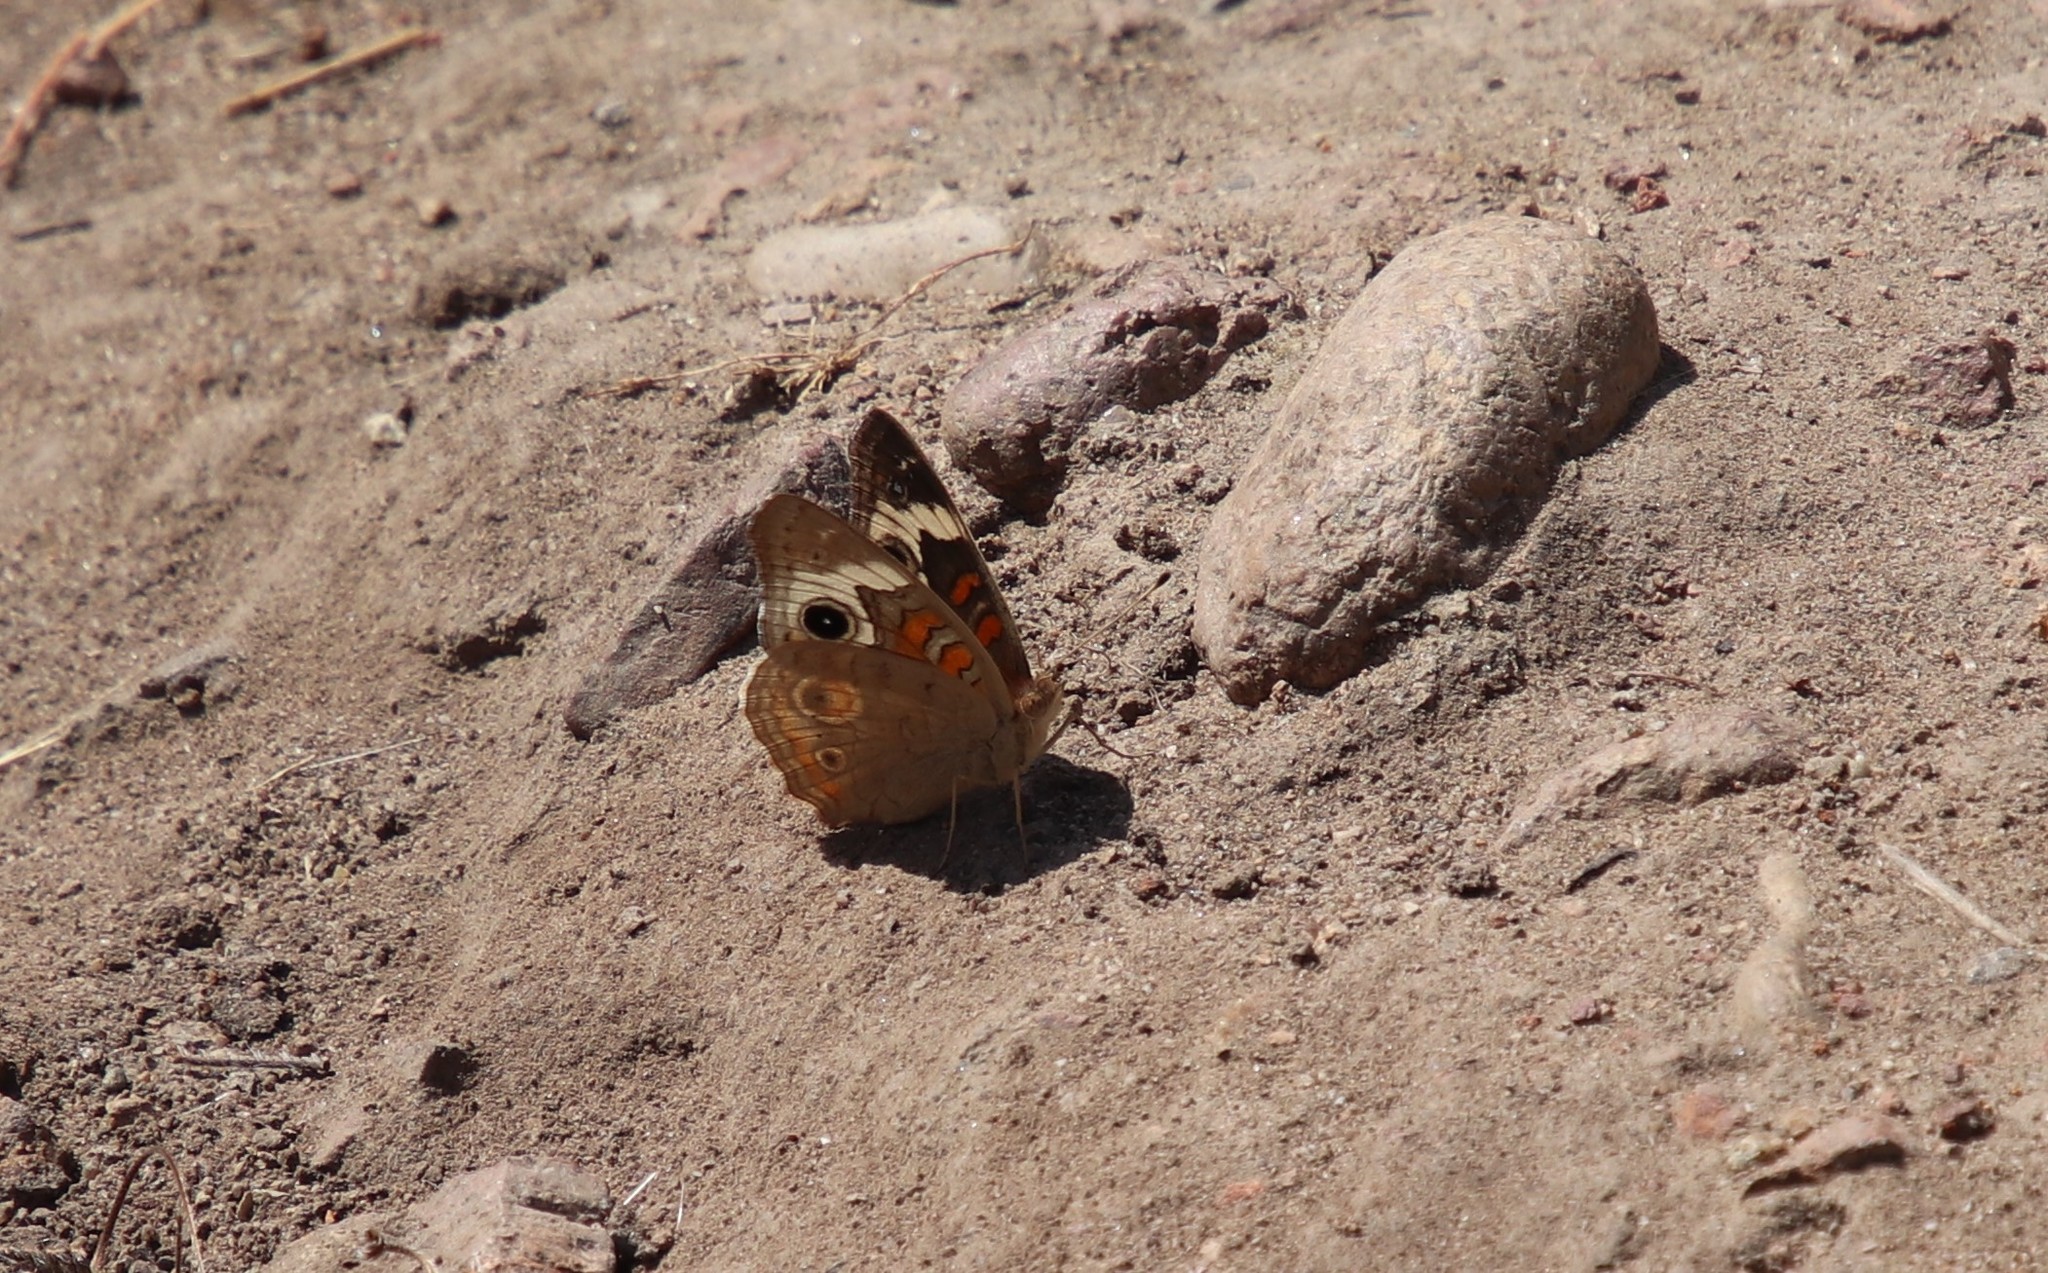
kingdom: Animalia
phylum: Arthropoda
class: Insecta
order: Lepidoptera
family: Nymphalidae
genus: Junonia
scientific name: Junonia grisea
